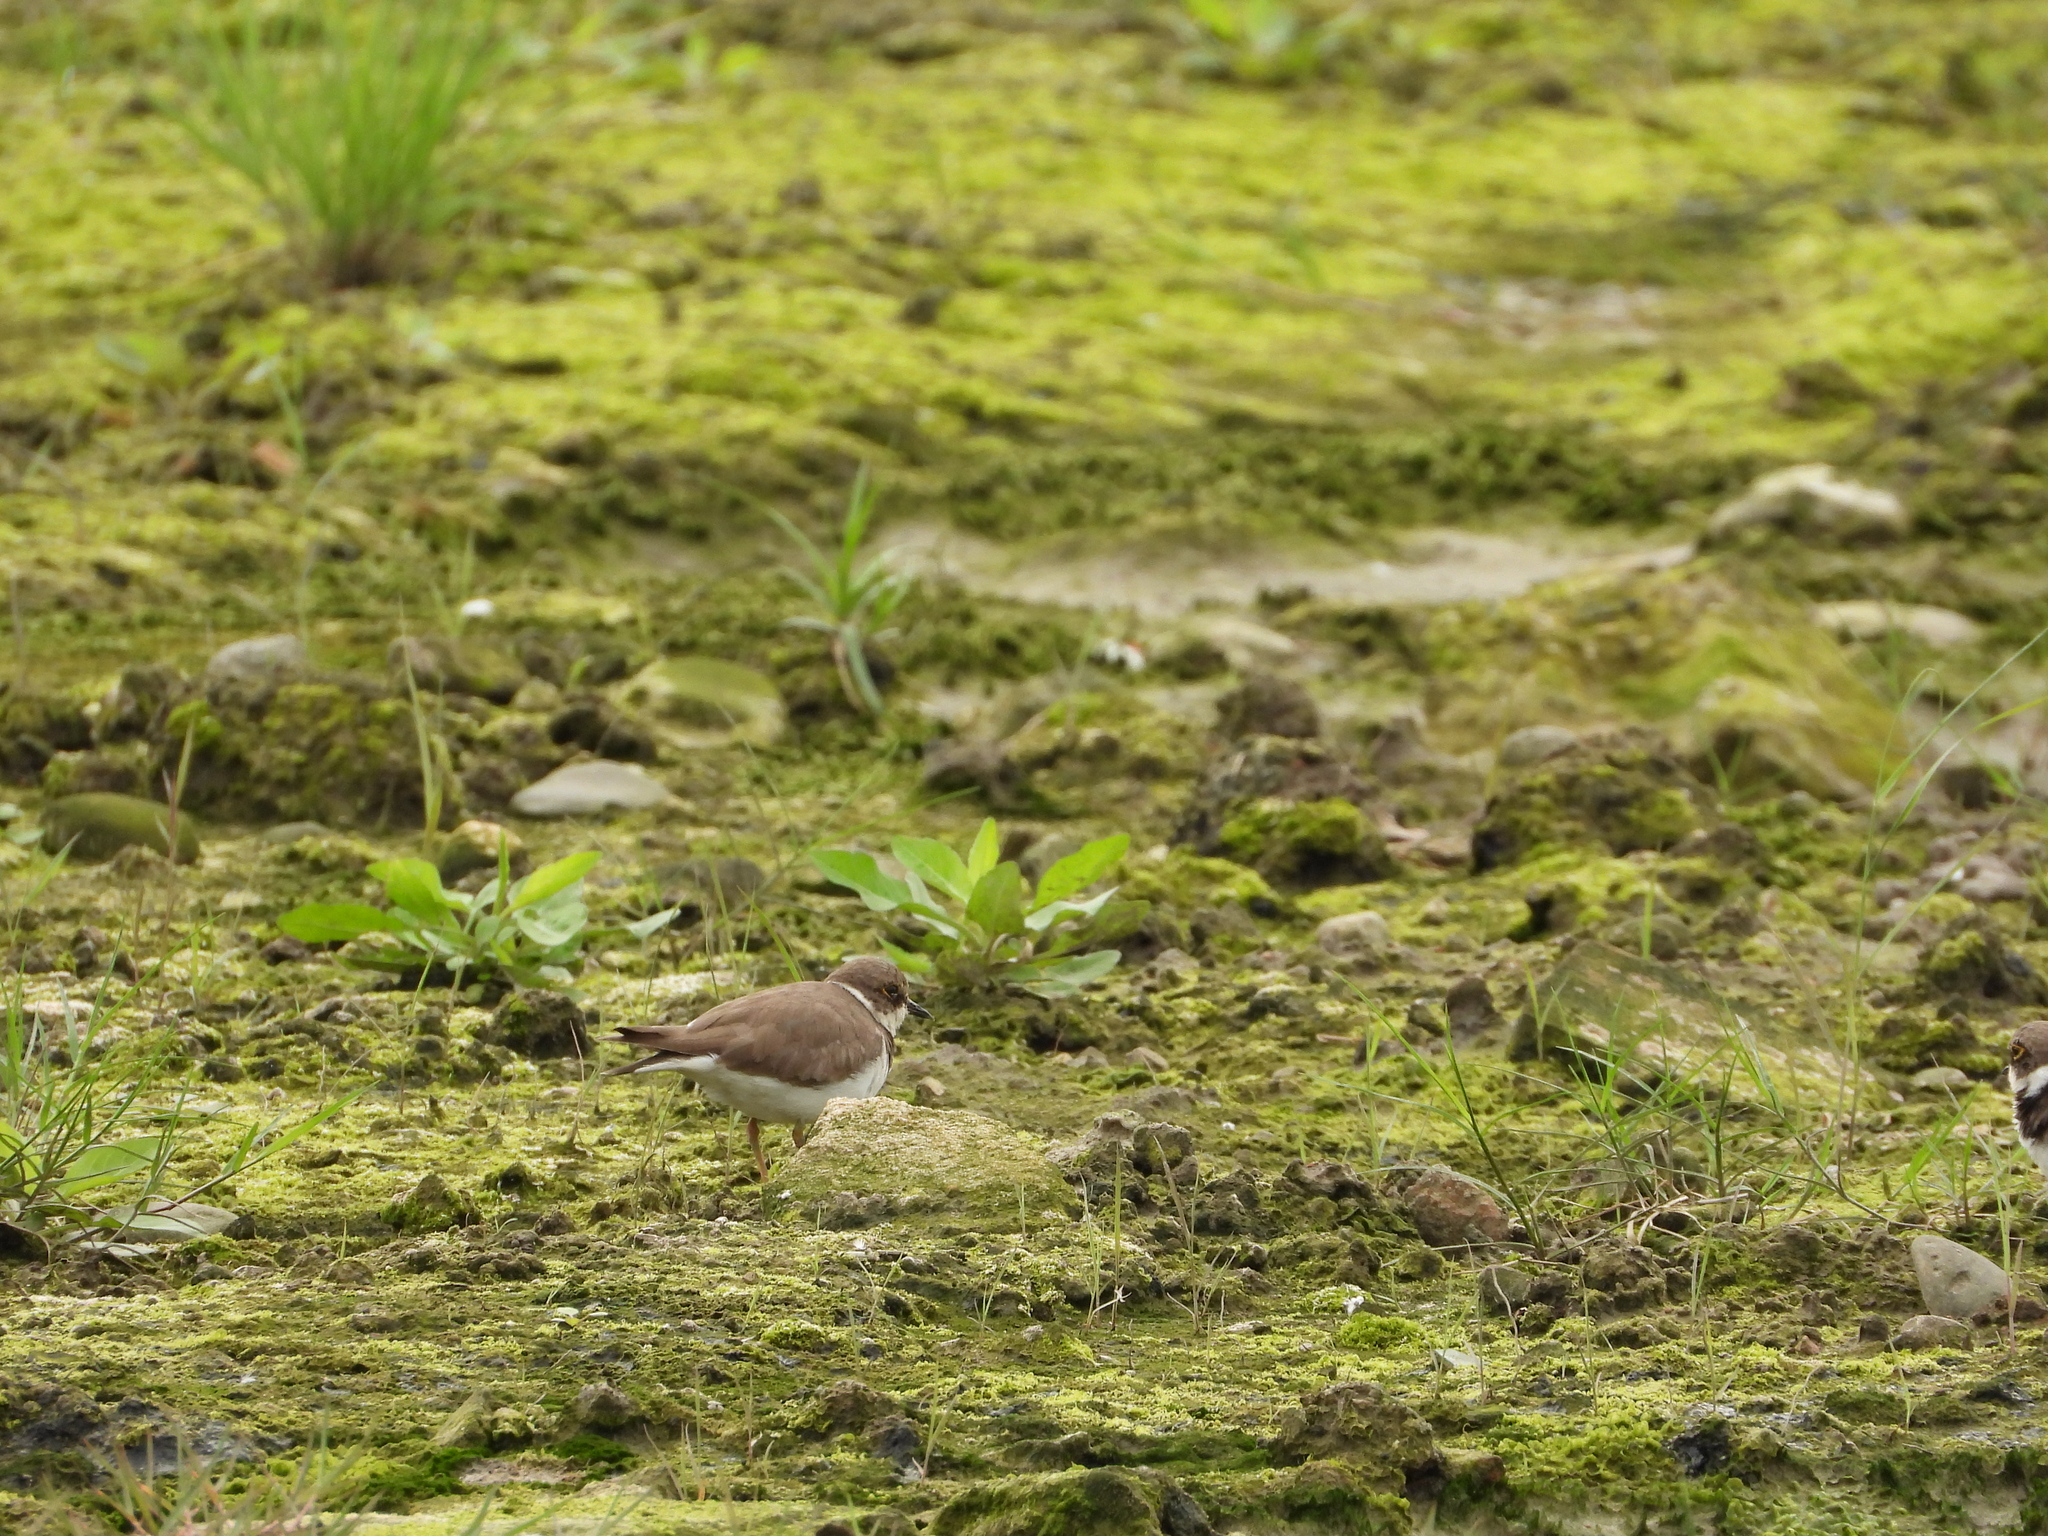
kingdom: Animalia
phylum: Chordata
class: Aves
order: Charadriiformes
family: Charadriidae
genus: Charadrius
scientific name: Charadrius dubius
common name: Little ringed plover
